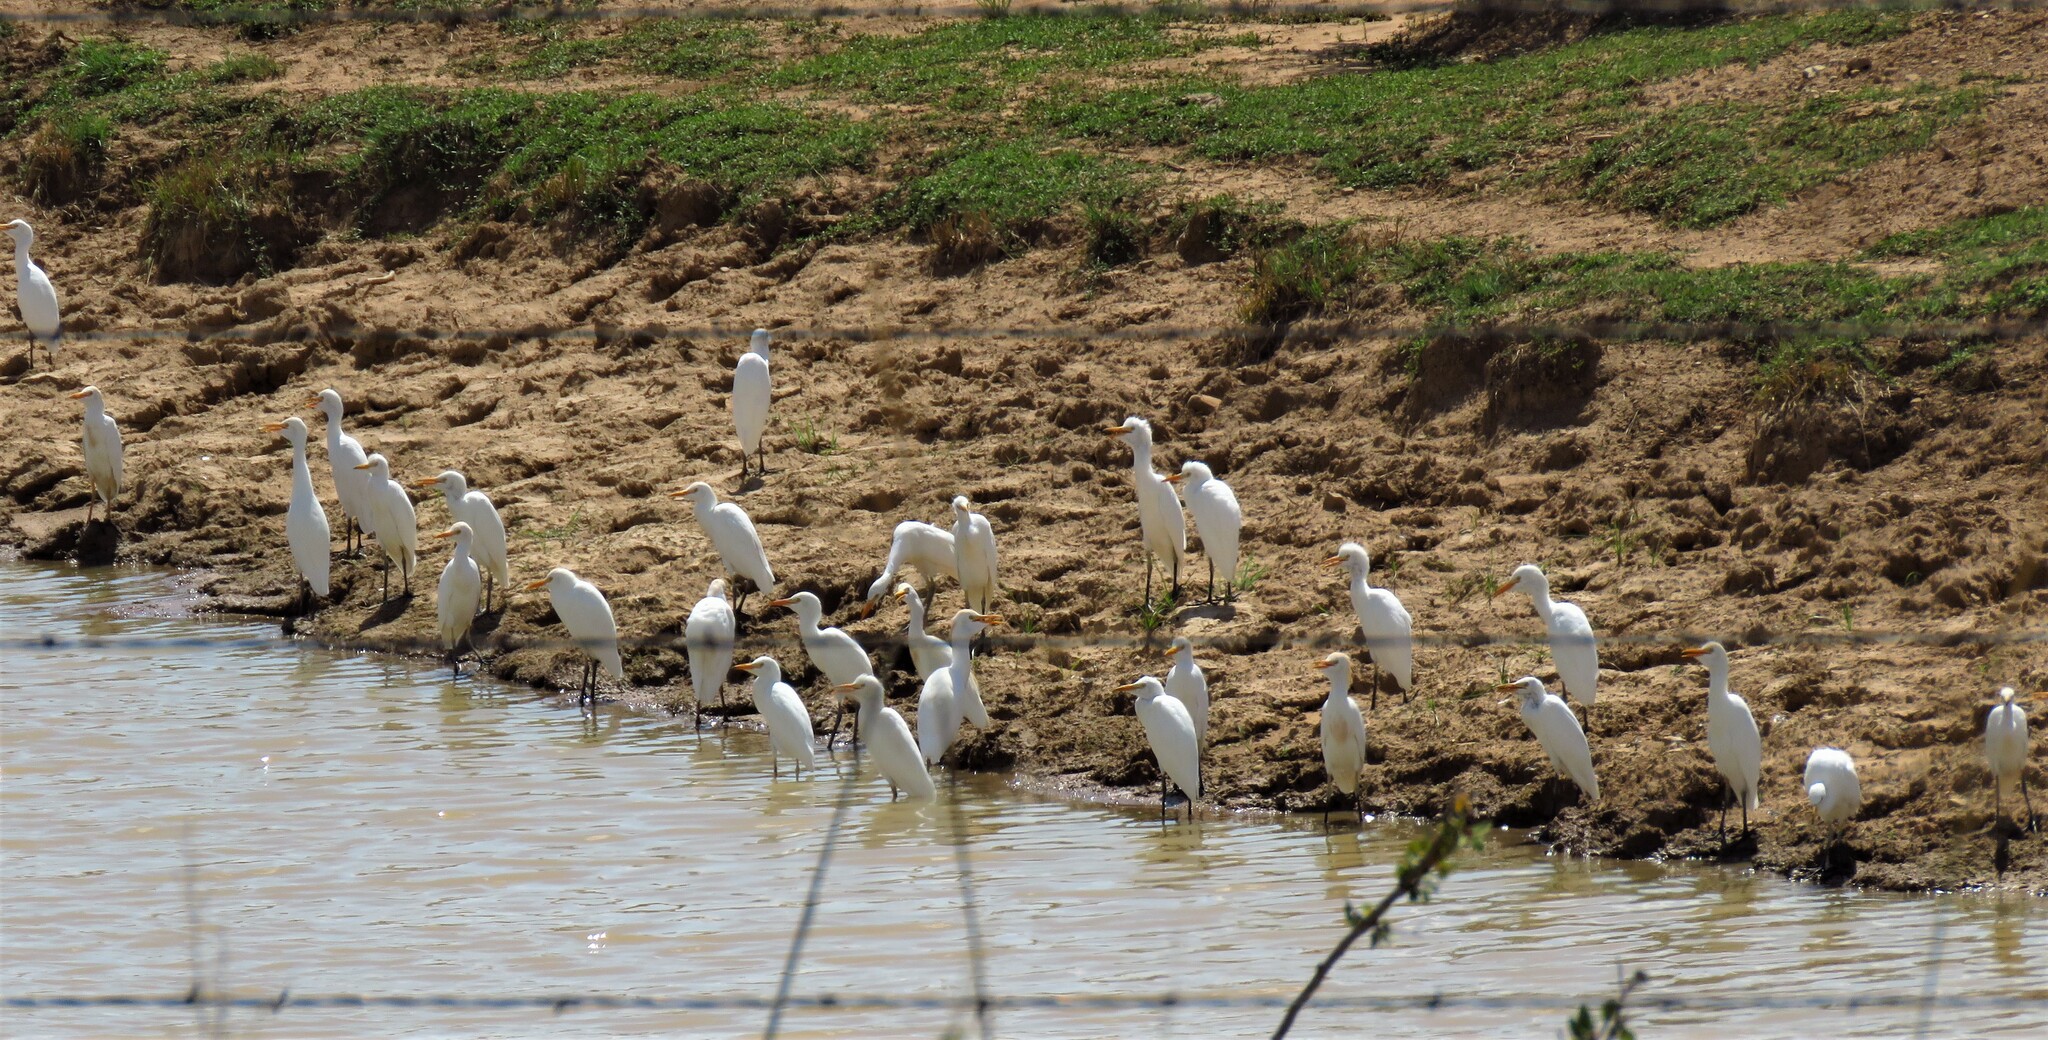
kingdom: Animalia
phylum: Chordata
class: Aves
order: Pelecaniformes
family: Ardeidae
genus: Bubulcus
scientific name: Bubulcus ibis
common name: Cattle egret
